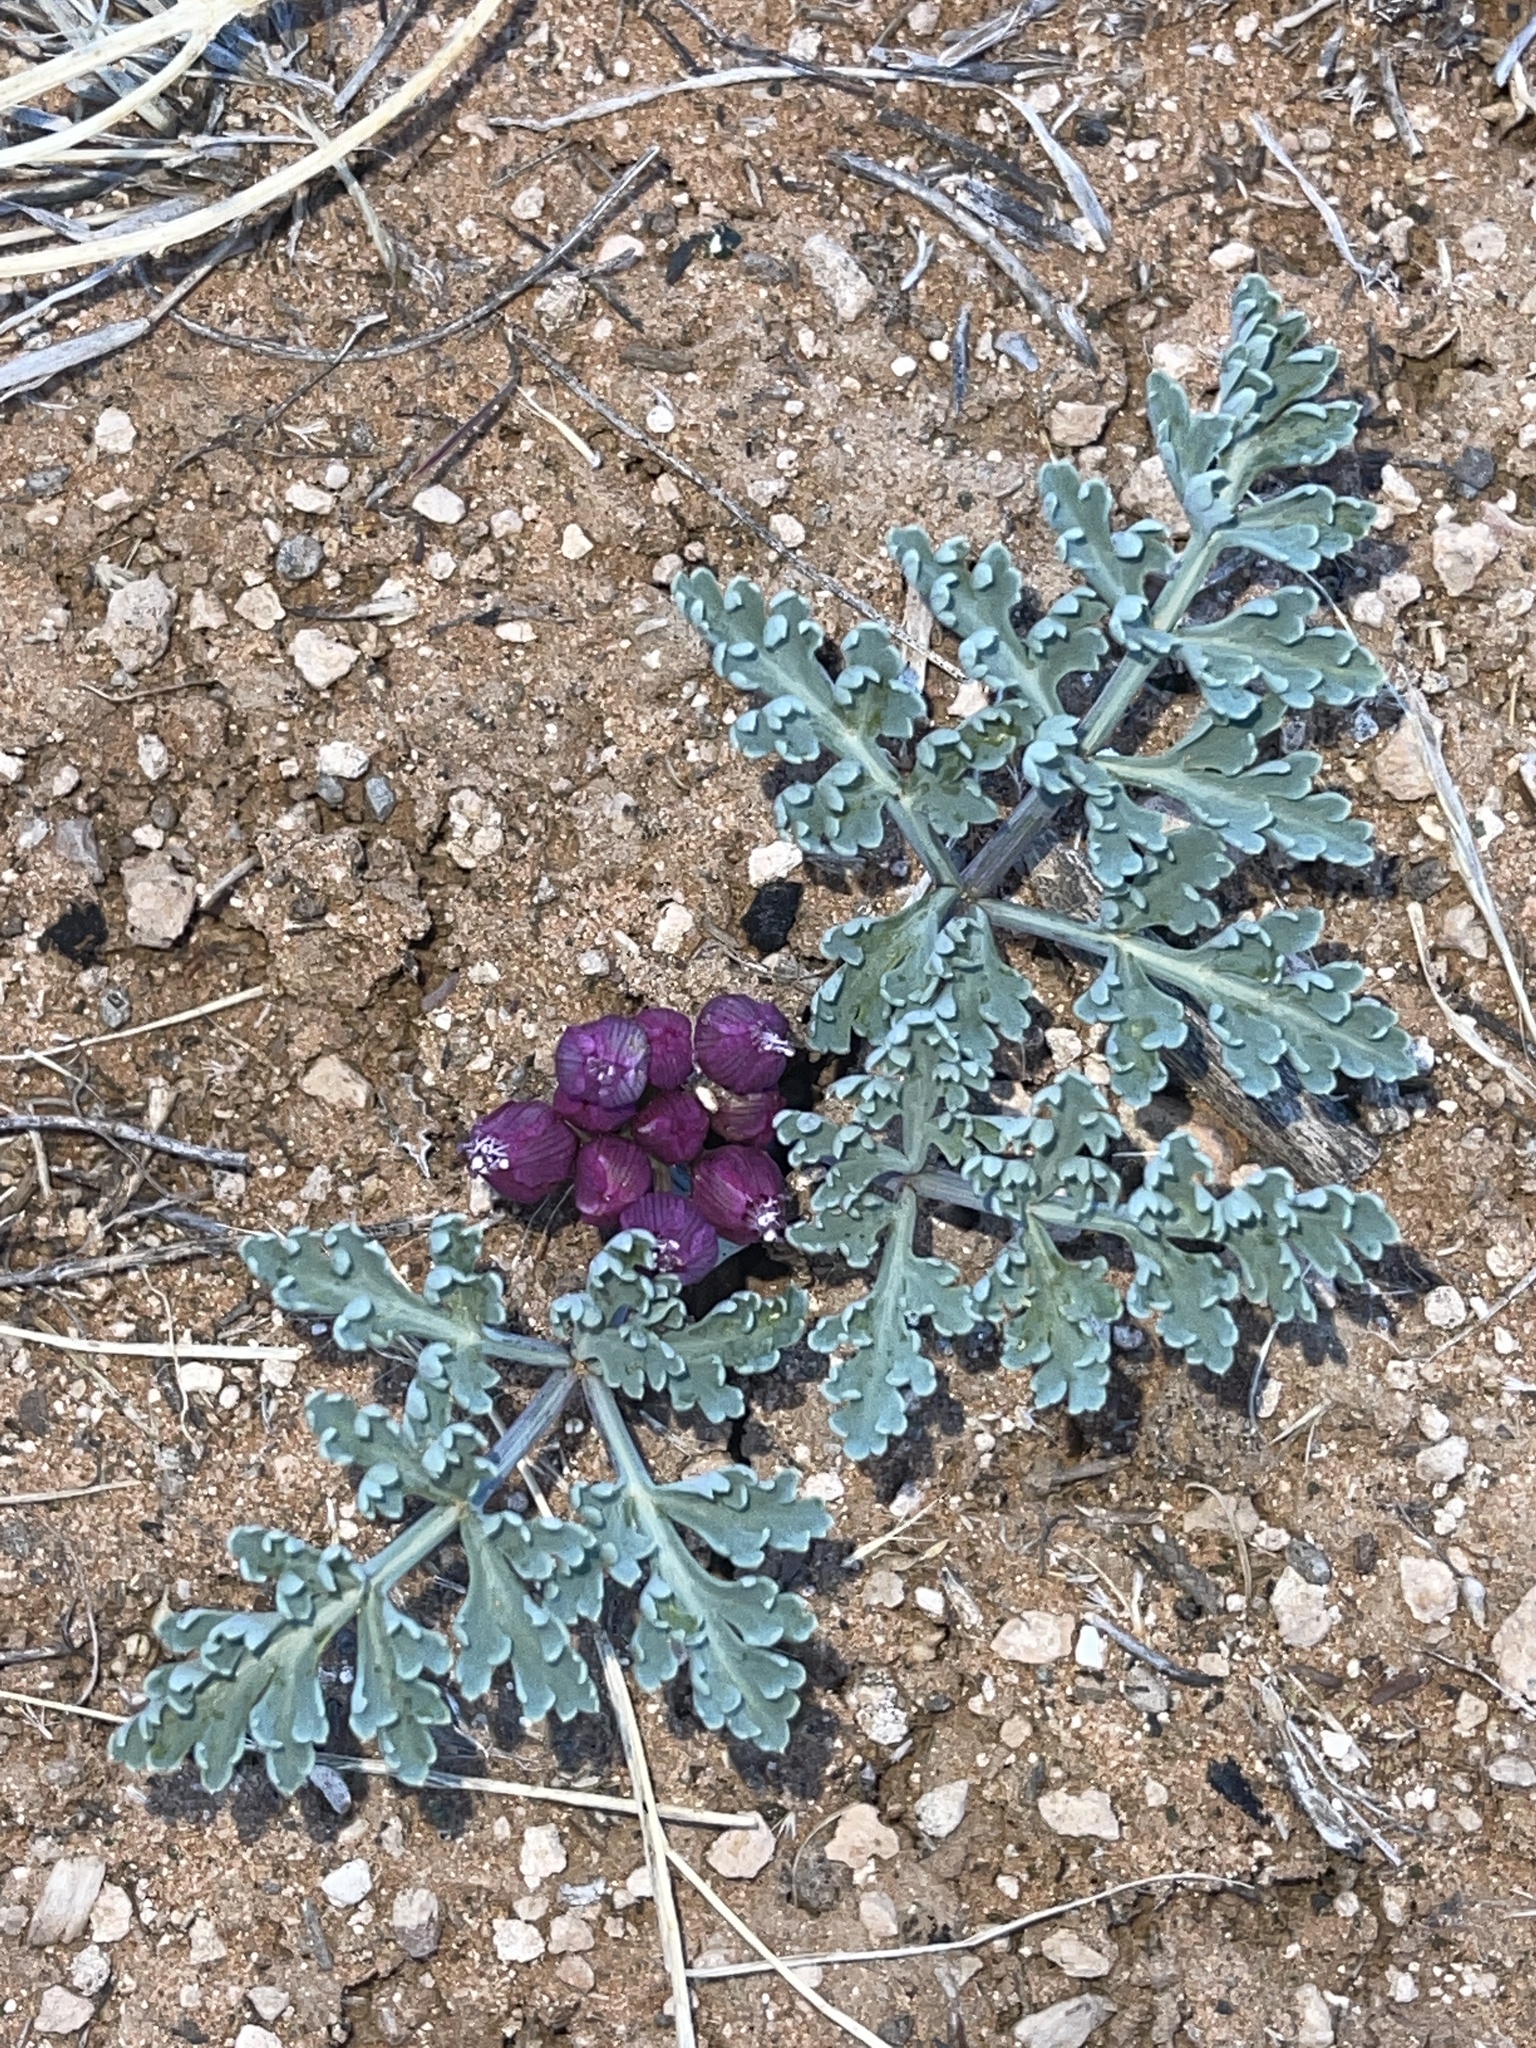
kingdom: Plantae
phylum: Tracheophyta
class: Magnoliopsida
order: Apiales
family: Apiaceae
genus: Vesper
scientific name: Vesper multinervatus
